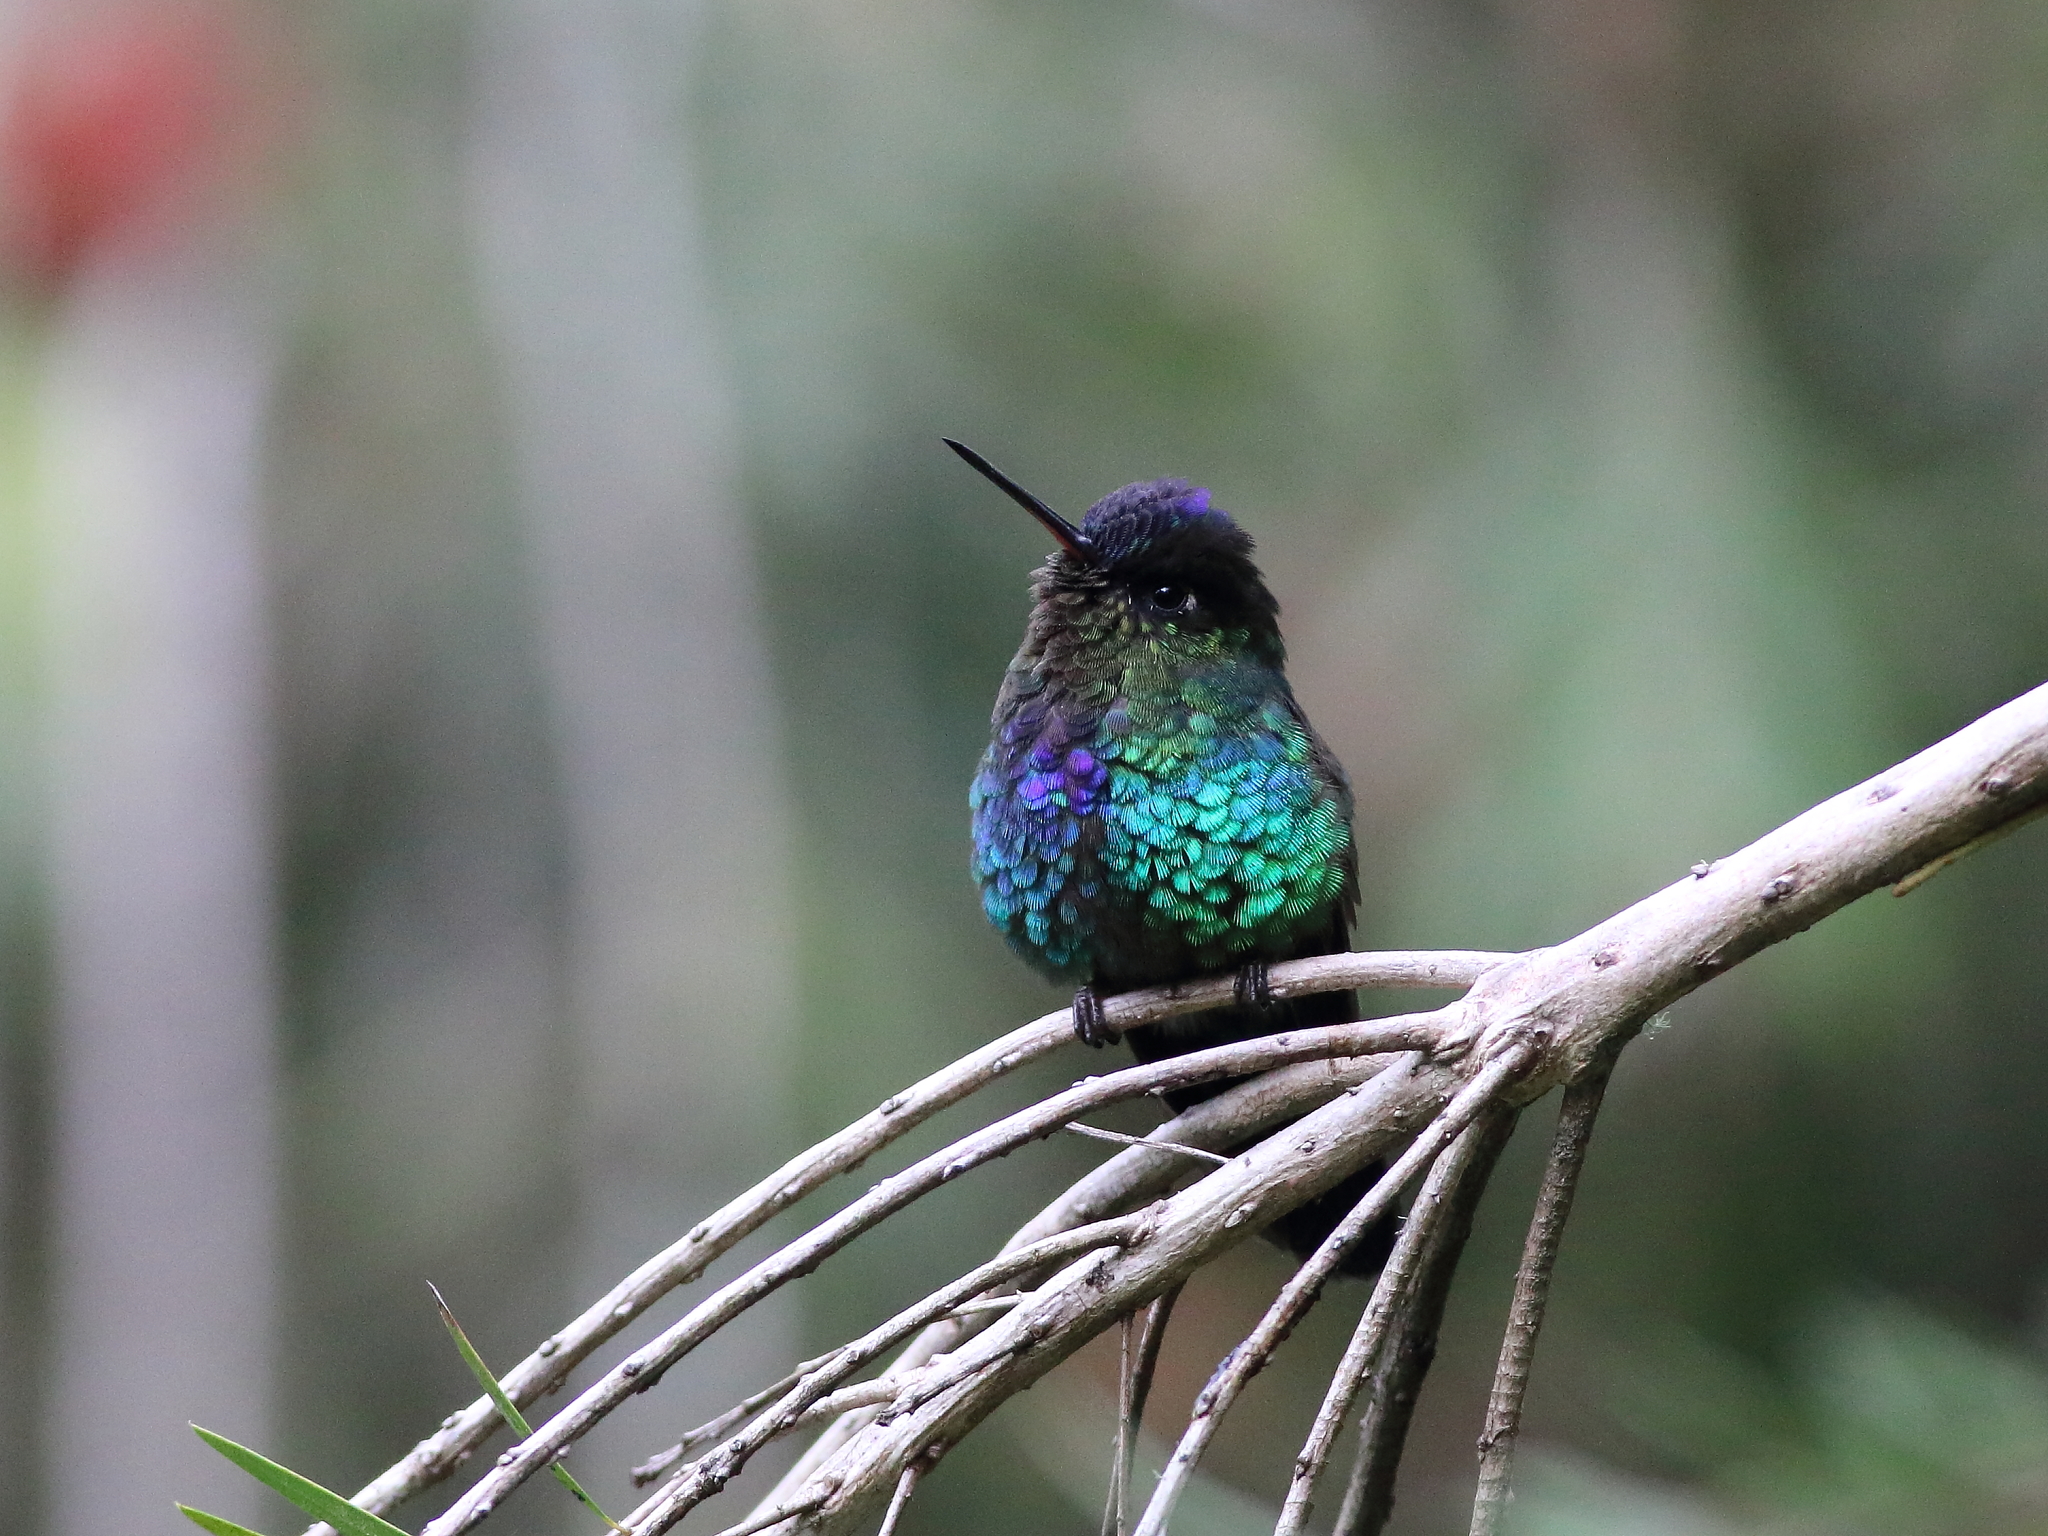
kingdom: Animalia
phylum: Chordata
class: Aves
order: Apodiformes
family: Trochilidae
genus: Panterpe
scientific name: Panterpe insignis
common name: Fiery-throated hummingbird
